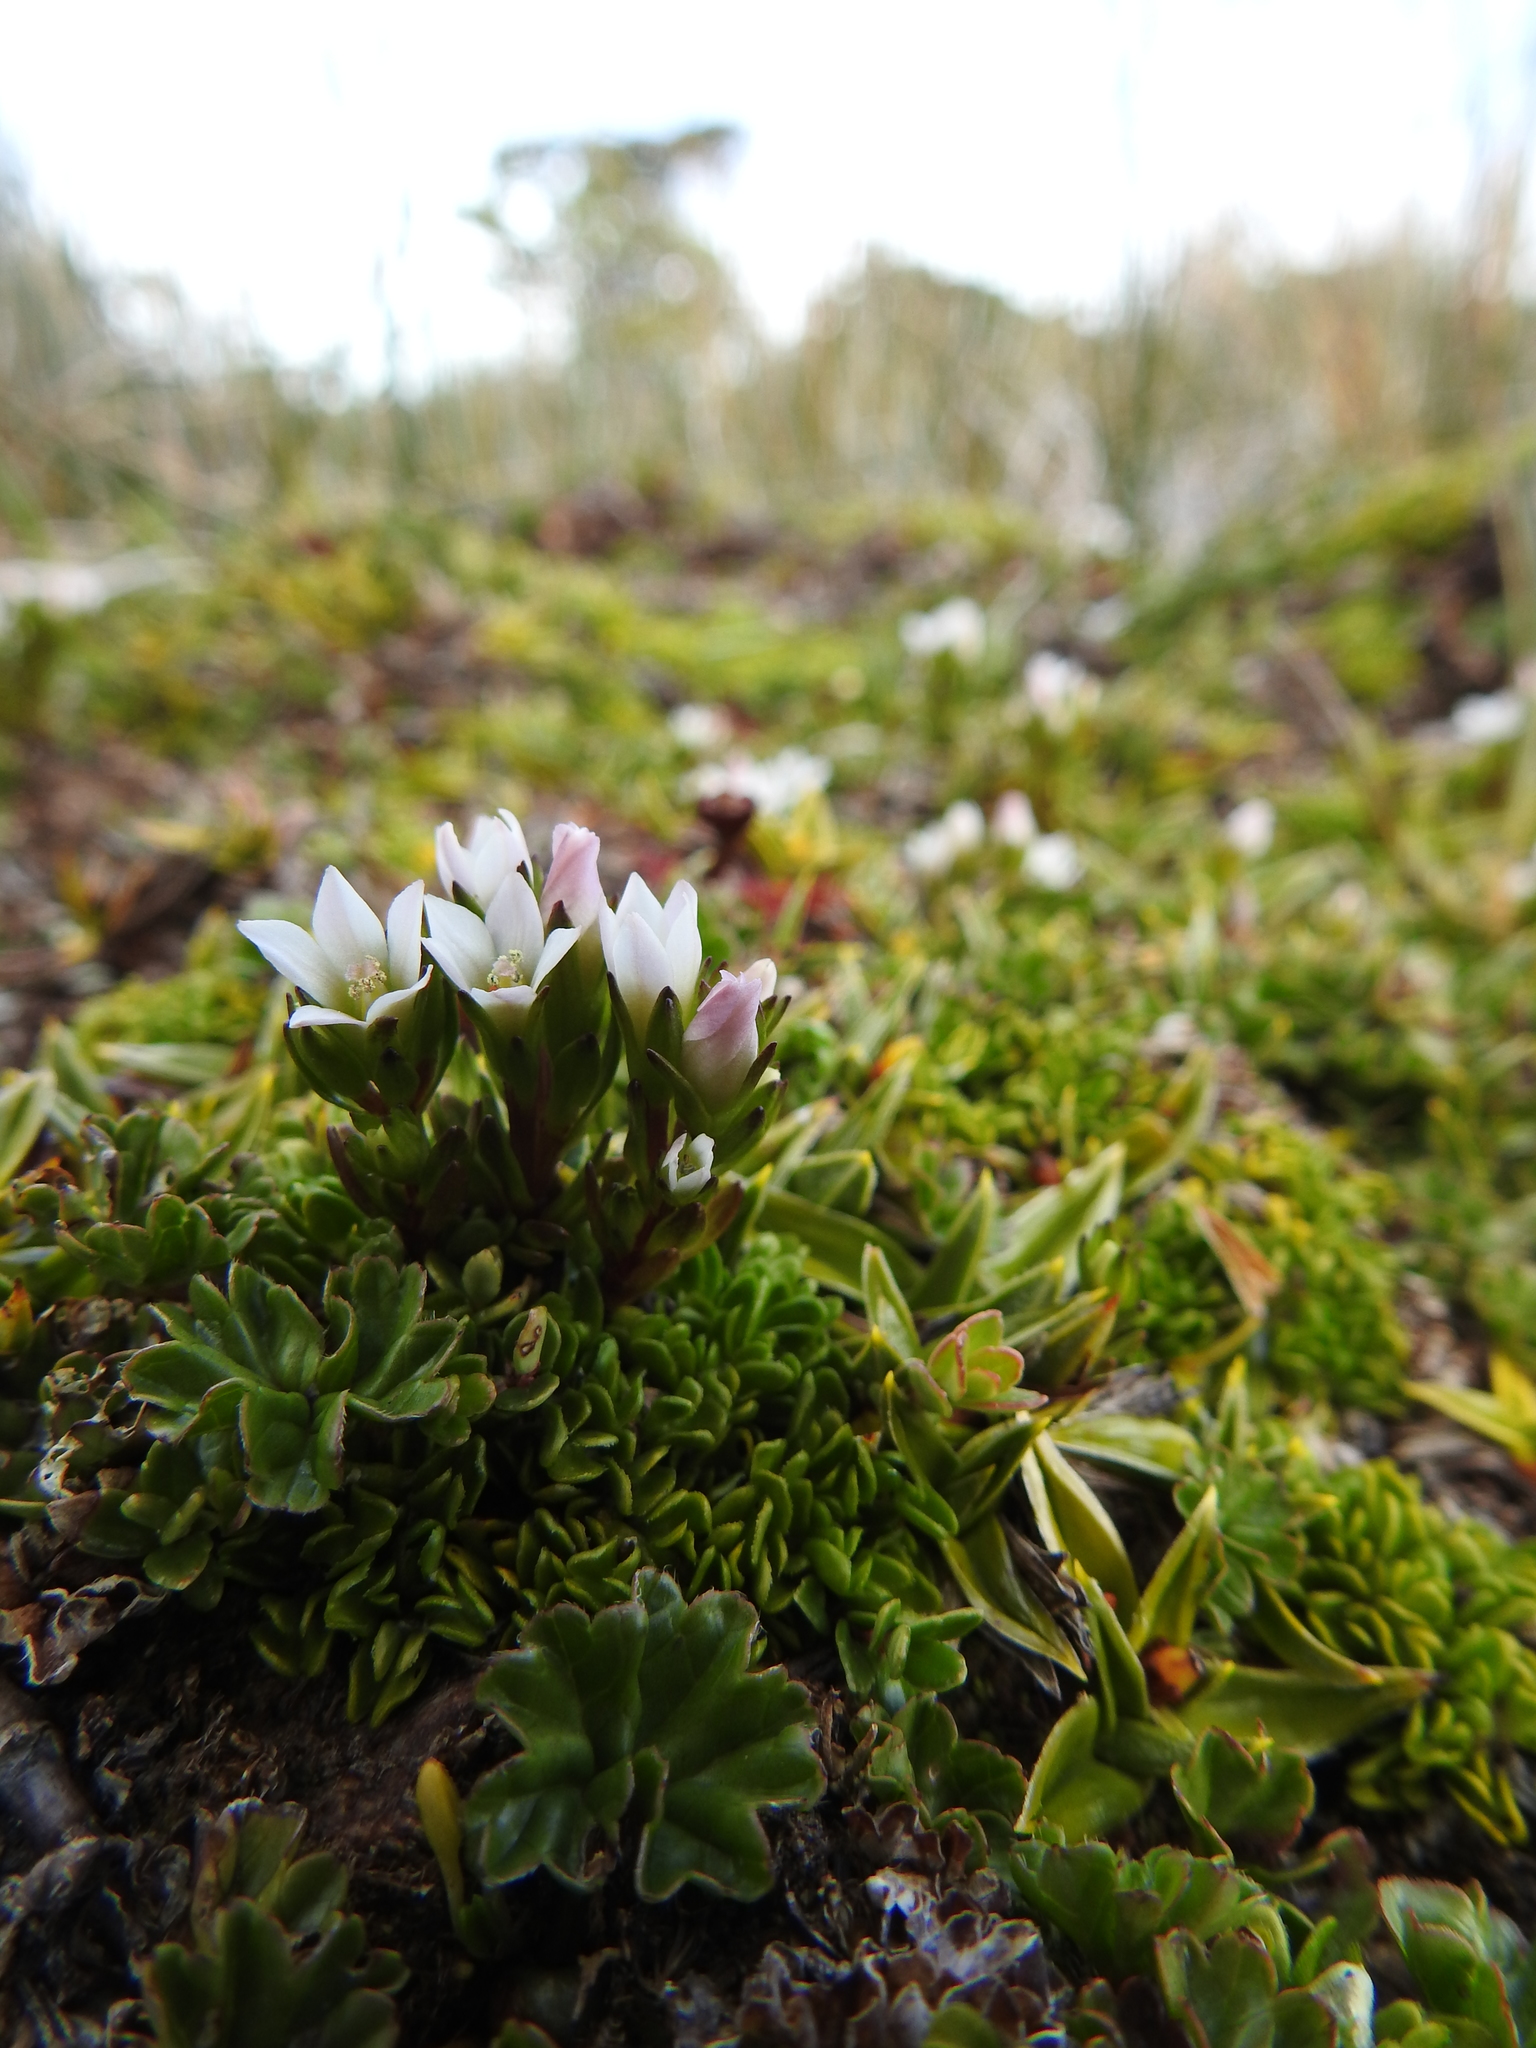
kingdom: Plantae
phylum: Tracheophyta
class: Magnoliopsida
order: Gentianales
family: Gentianaceae
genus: Gentianella
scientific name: Gentianella magellanica
